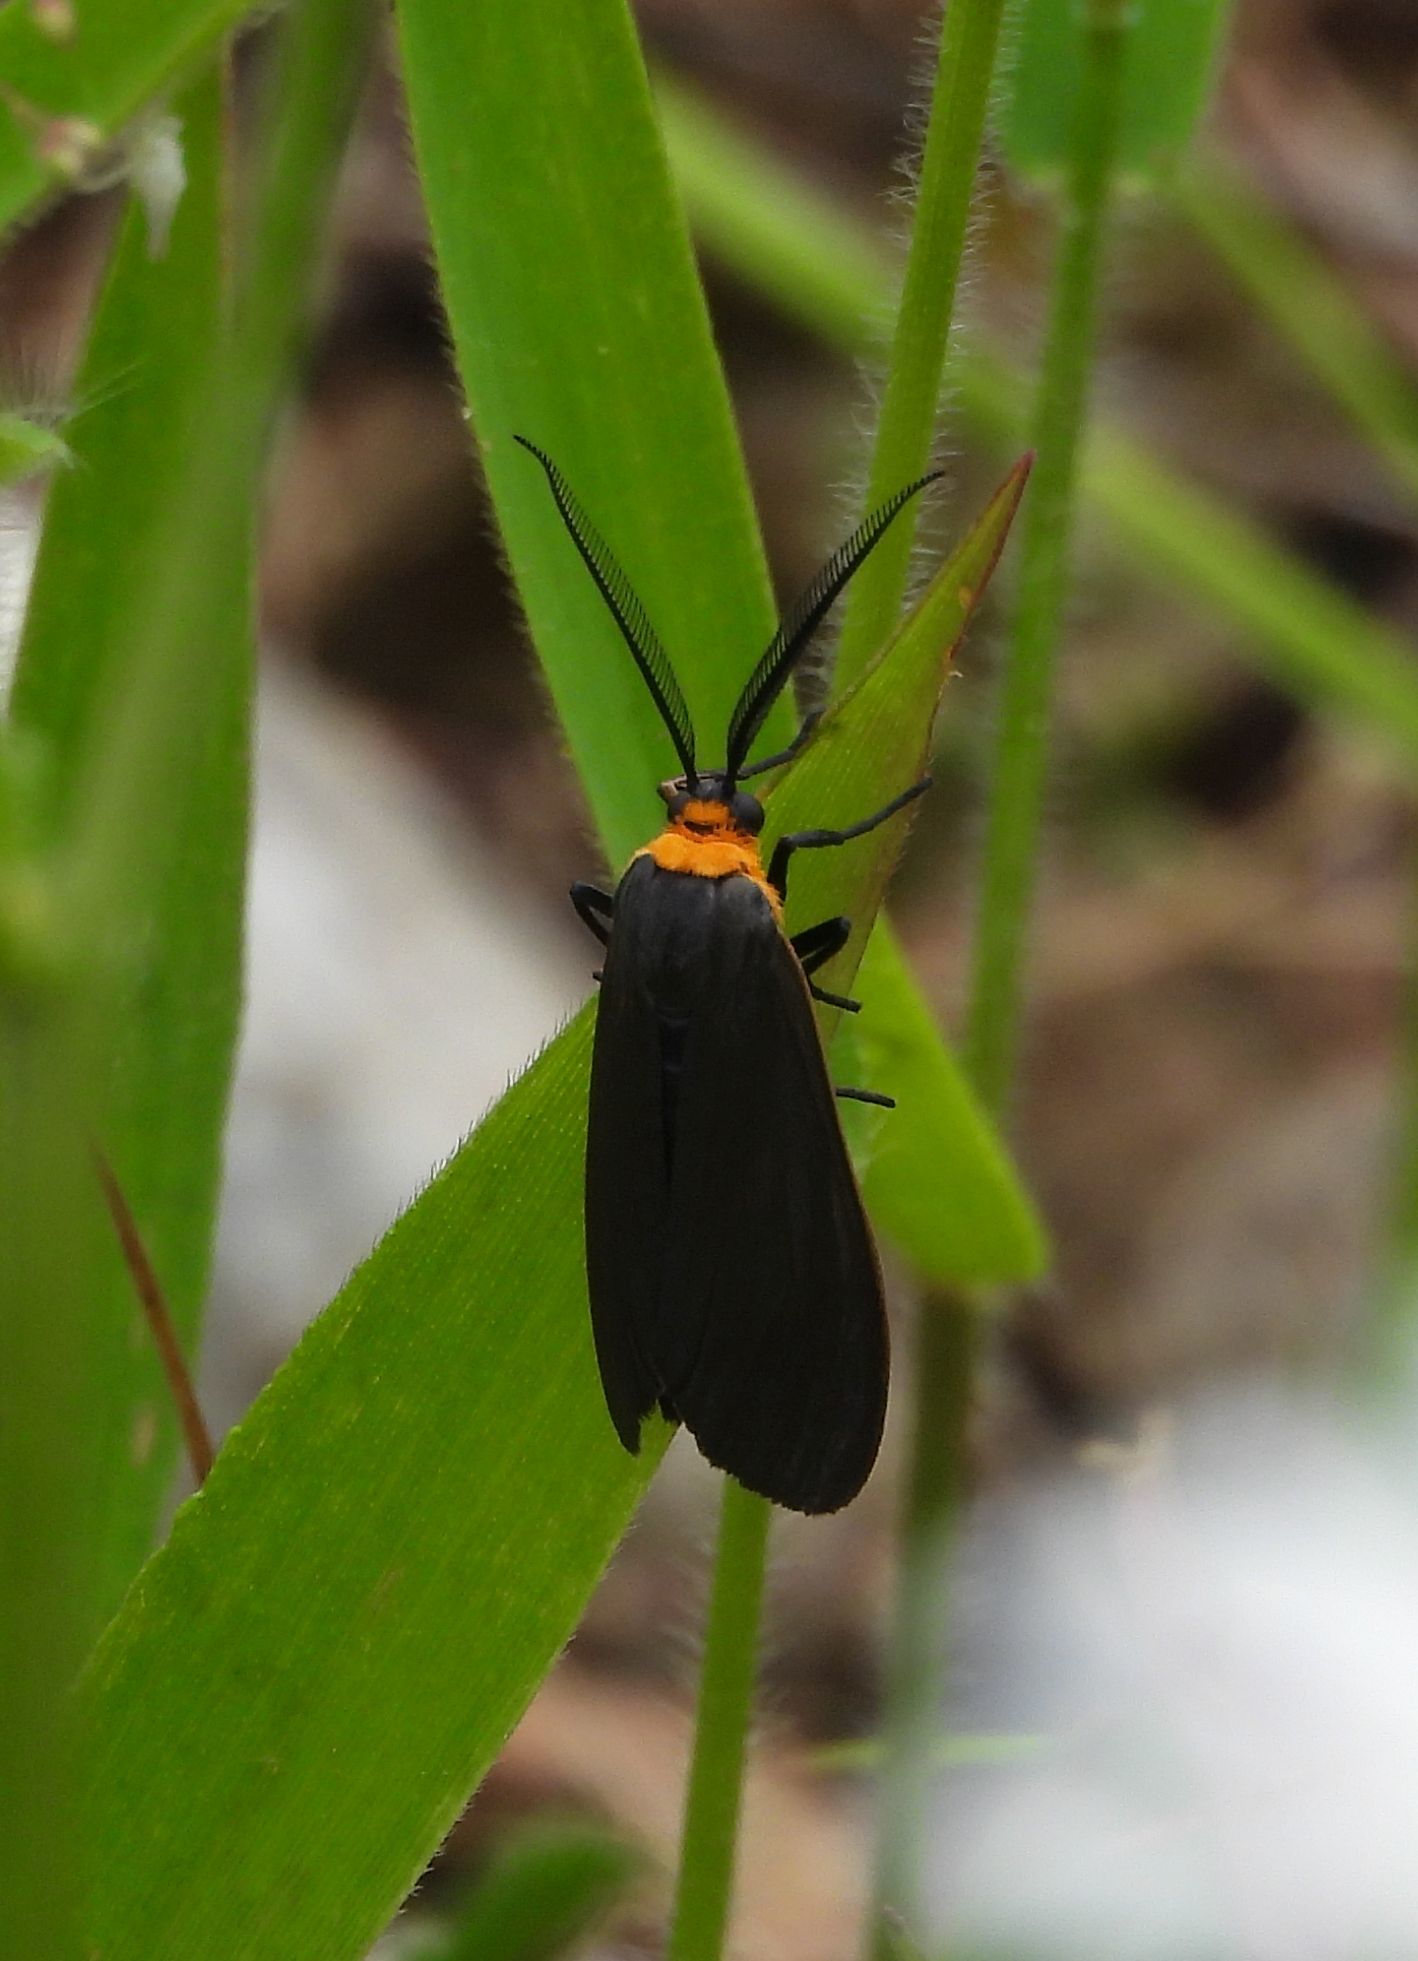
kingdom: Animalia
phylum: Arthropoda
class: Insecta
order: Lepidoptera
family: Erebidae
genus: Cisseps
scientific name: Cisseps fulvicollis
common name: Yellow-collared scape moth
